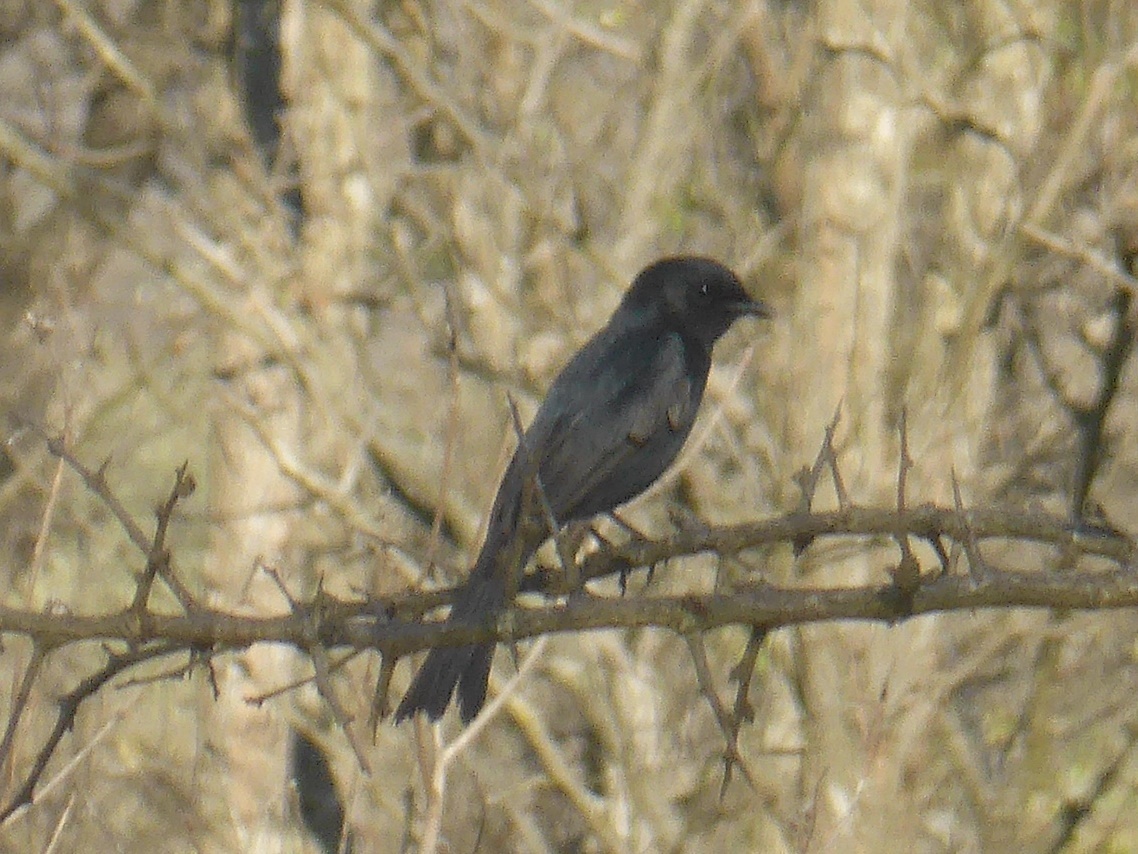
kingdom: Animalia
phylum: Chordata
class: Aves
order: Passeriformes
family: Muscicapidae
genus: Melaenornis
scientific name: Melaenornis pammelaina
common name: Southern black flycatcher
